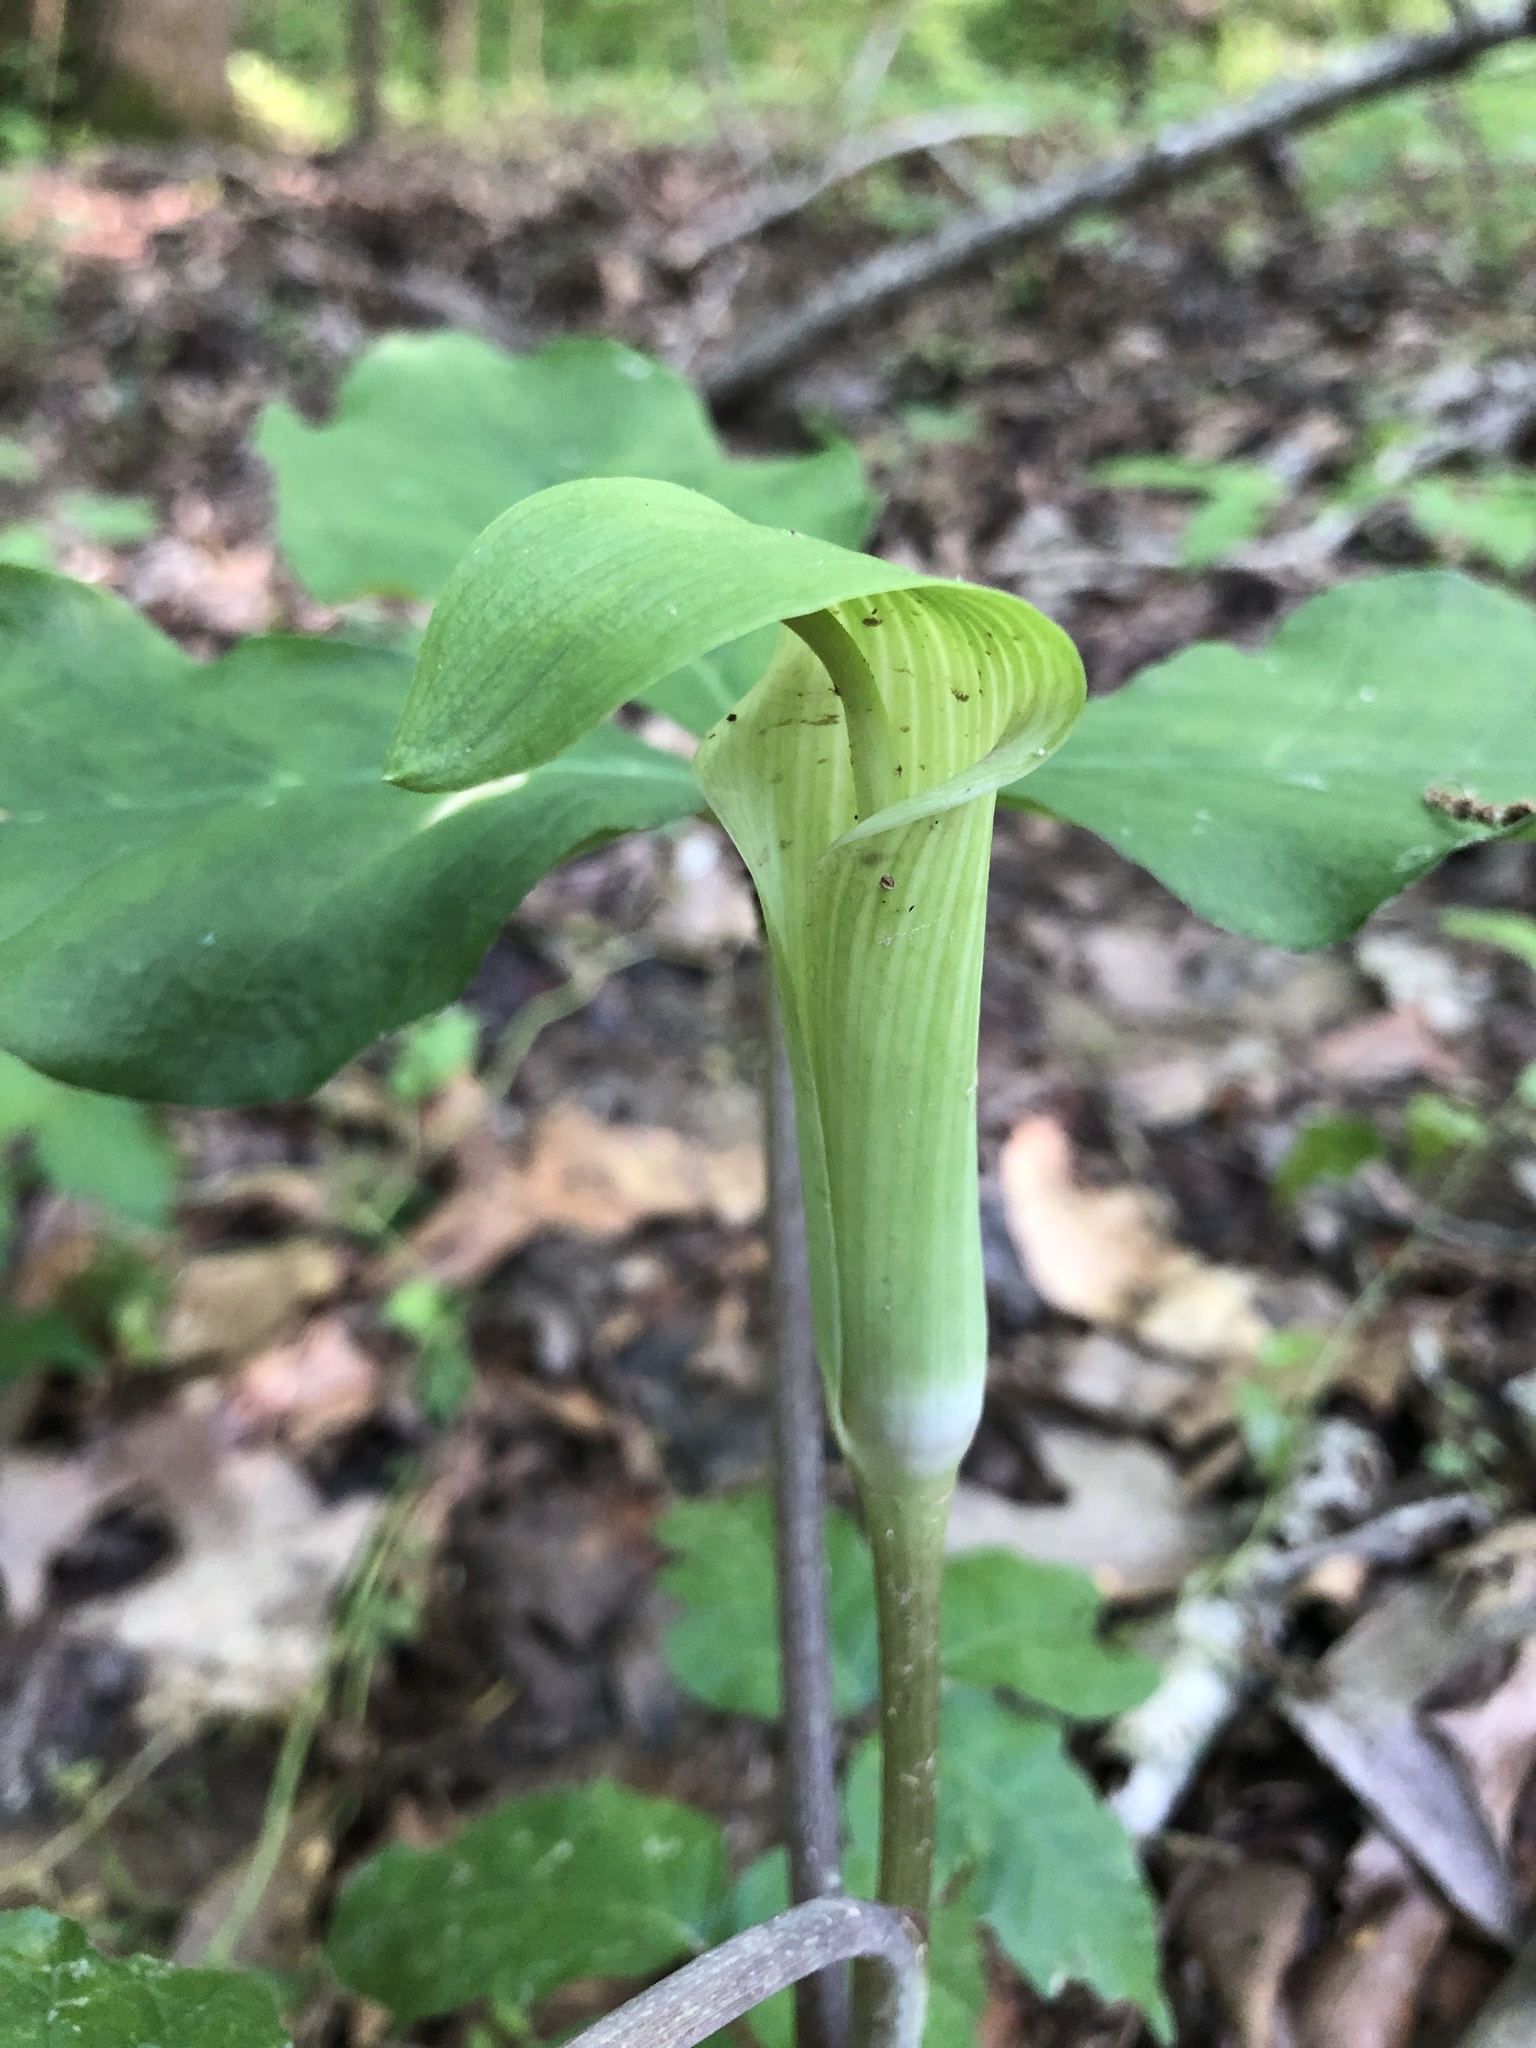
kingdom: Plantae
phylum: Tracheophyta
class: Liliopsida
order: Alismatales
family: Araceae
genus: Arisaema
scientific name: Arisaema quinatum
